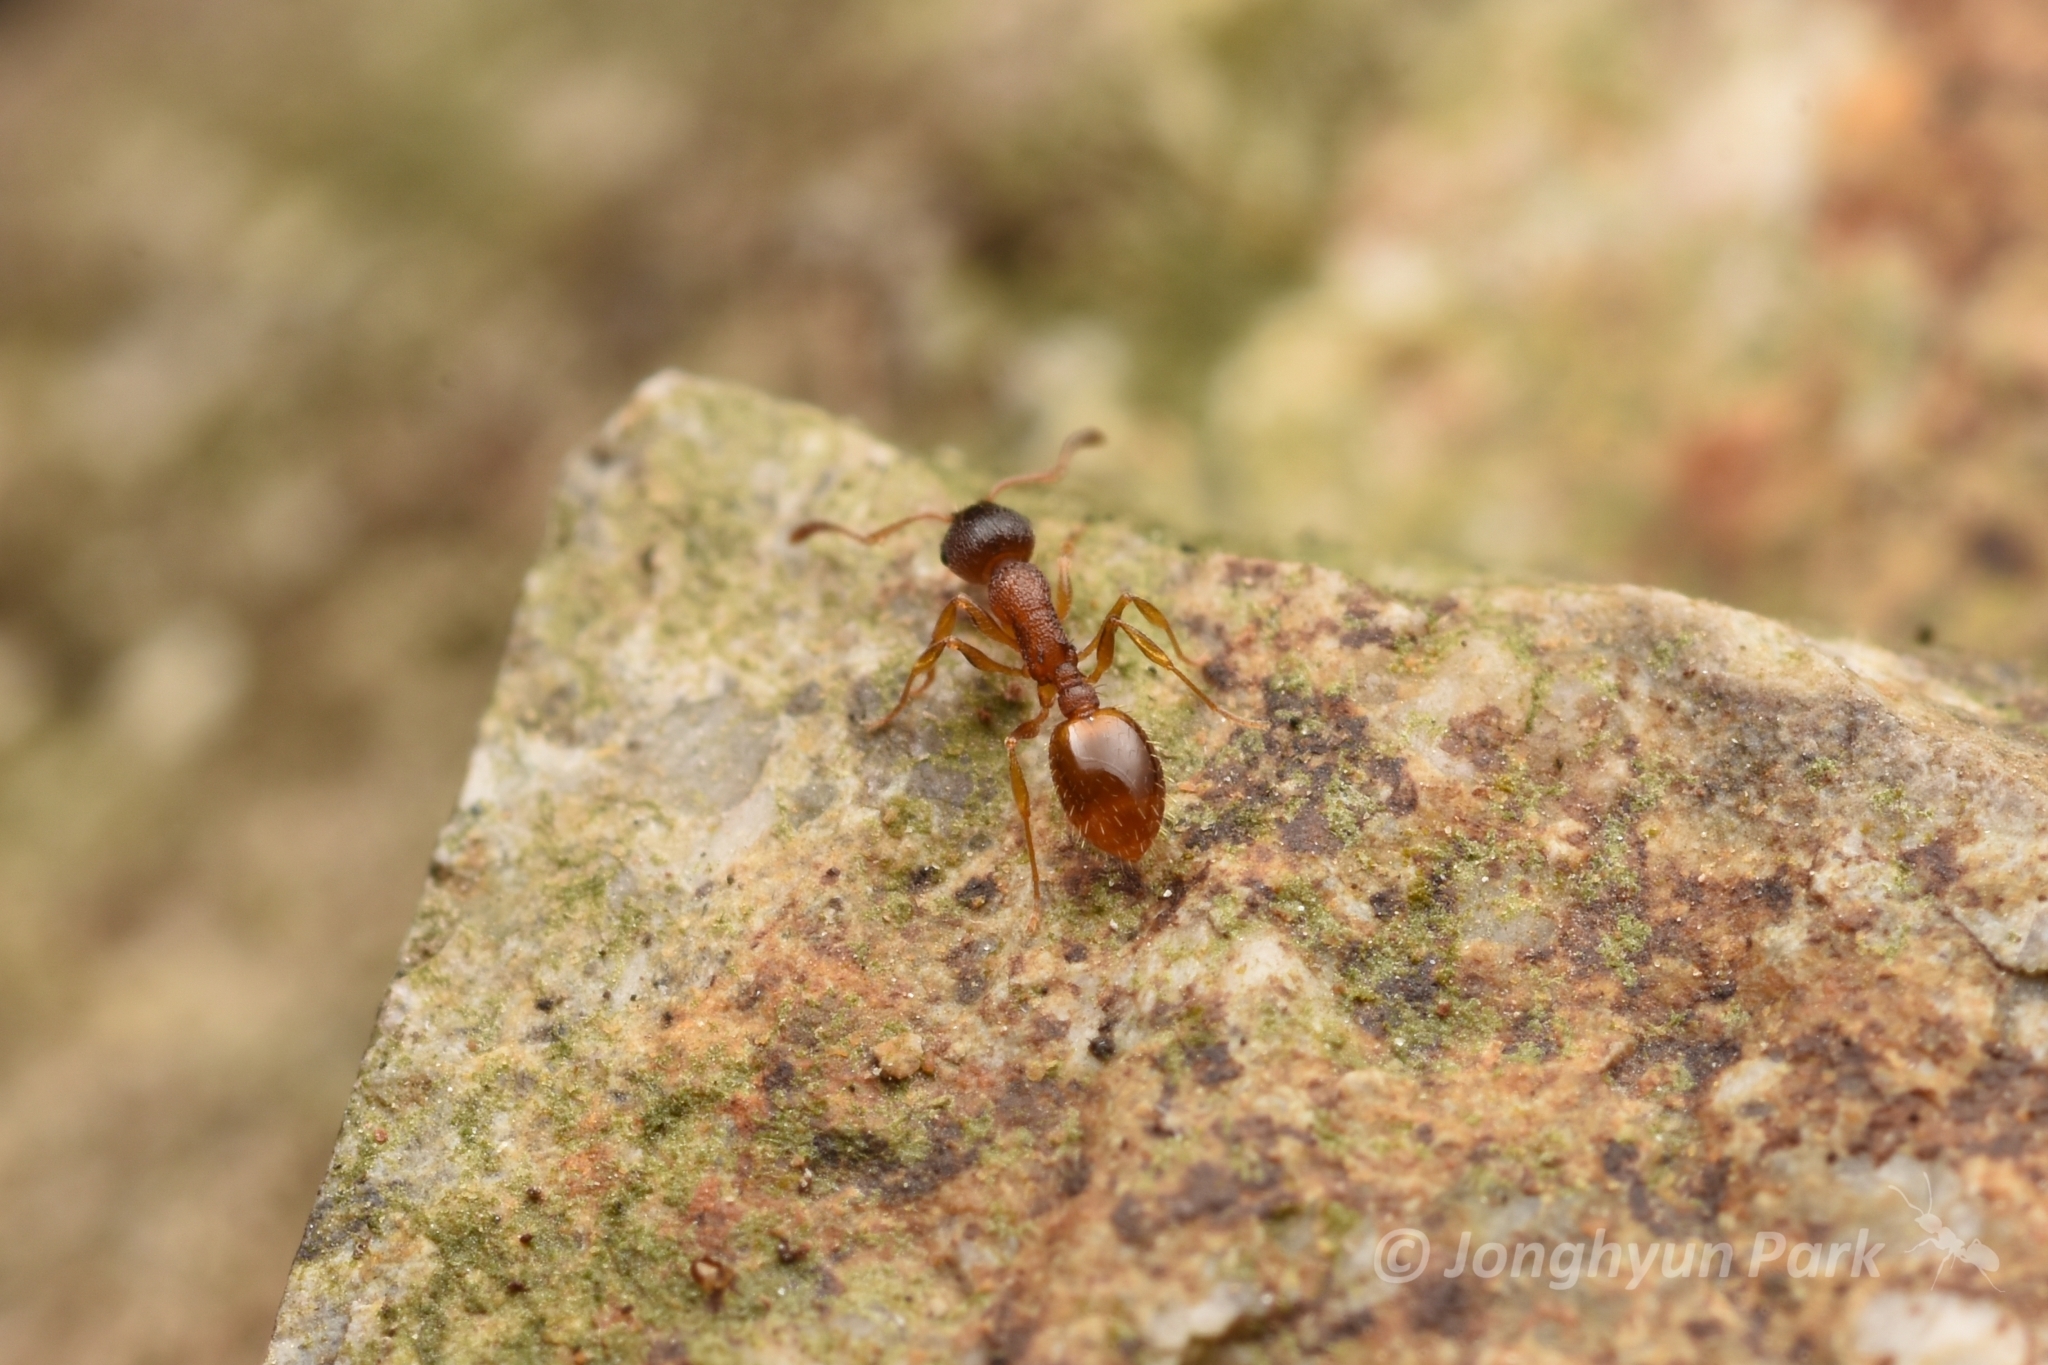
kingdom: Animalia
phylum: Arthropoda
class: Insecta
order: Hymenoptera
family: Formicidae
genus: Temnothorax
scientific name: Temnothorax
